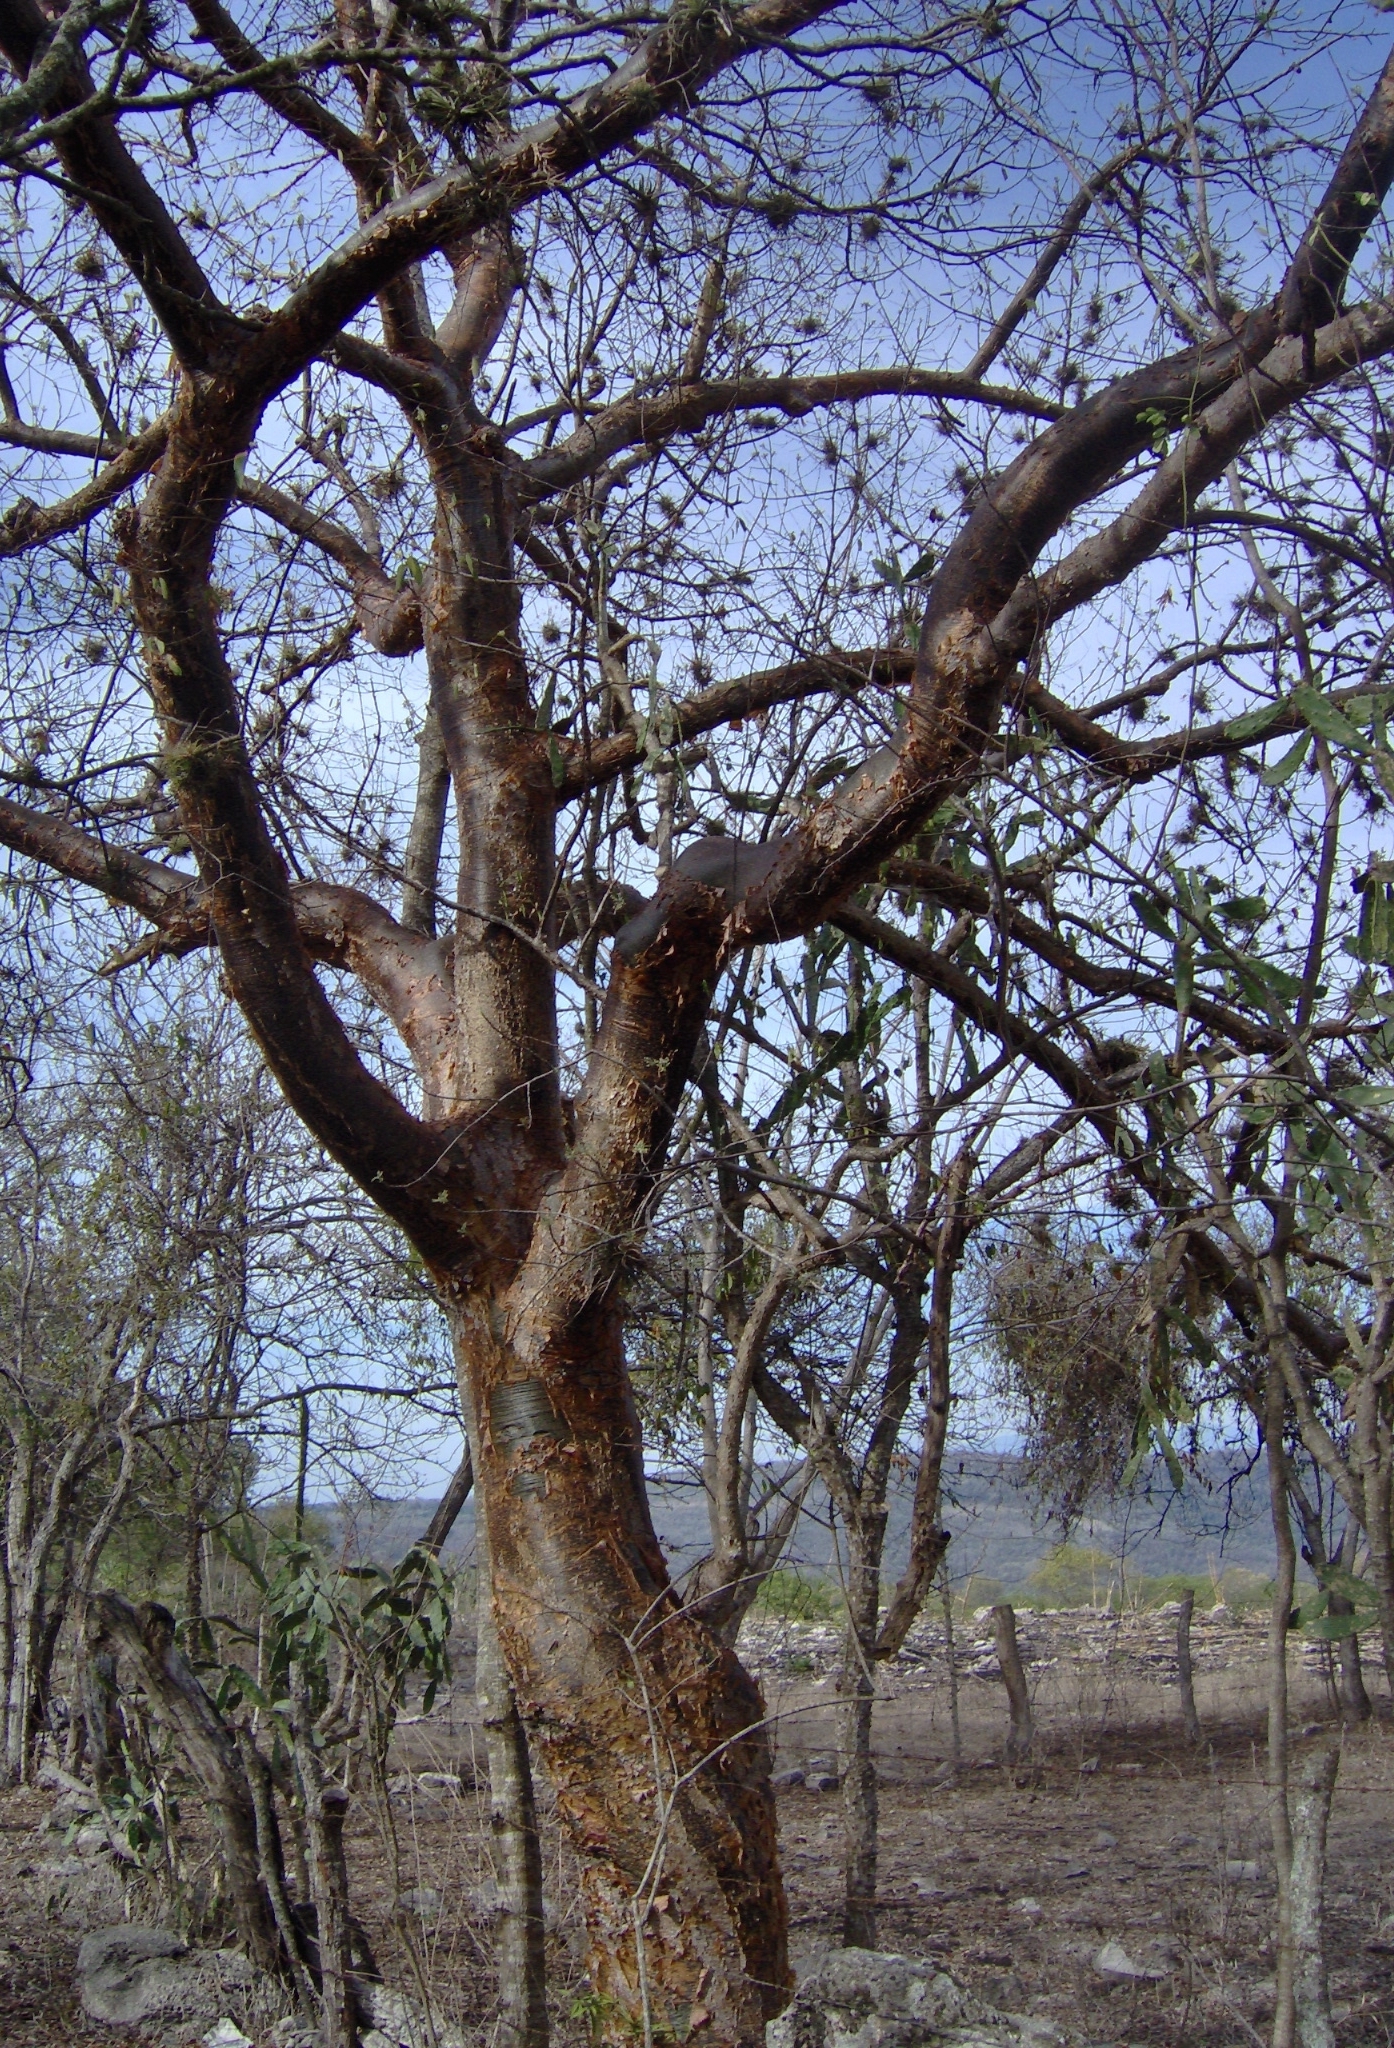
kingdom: Plantae
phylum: Tracheophyta
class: Magnoliopsida
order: Sapindales
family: Burseraceae
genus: Bursera
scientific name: Bursera simaruba
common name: Turpentine tree
